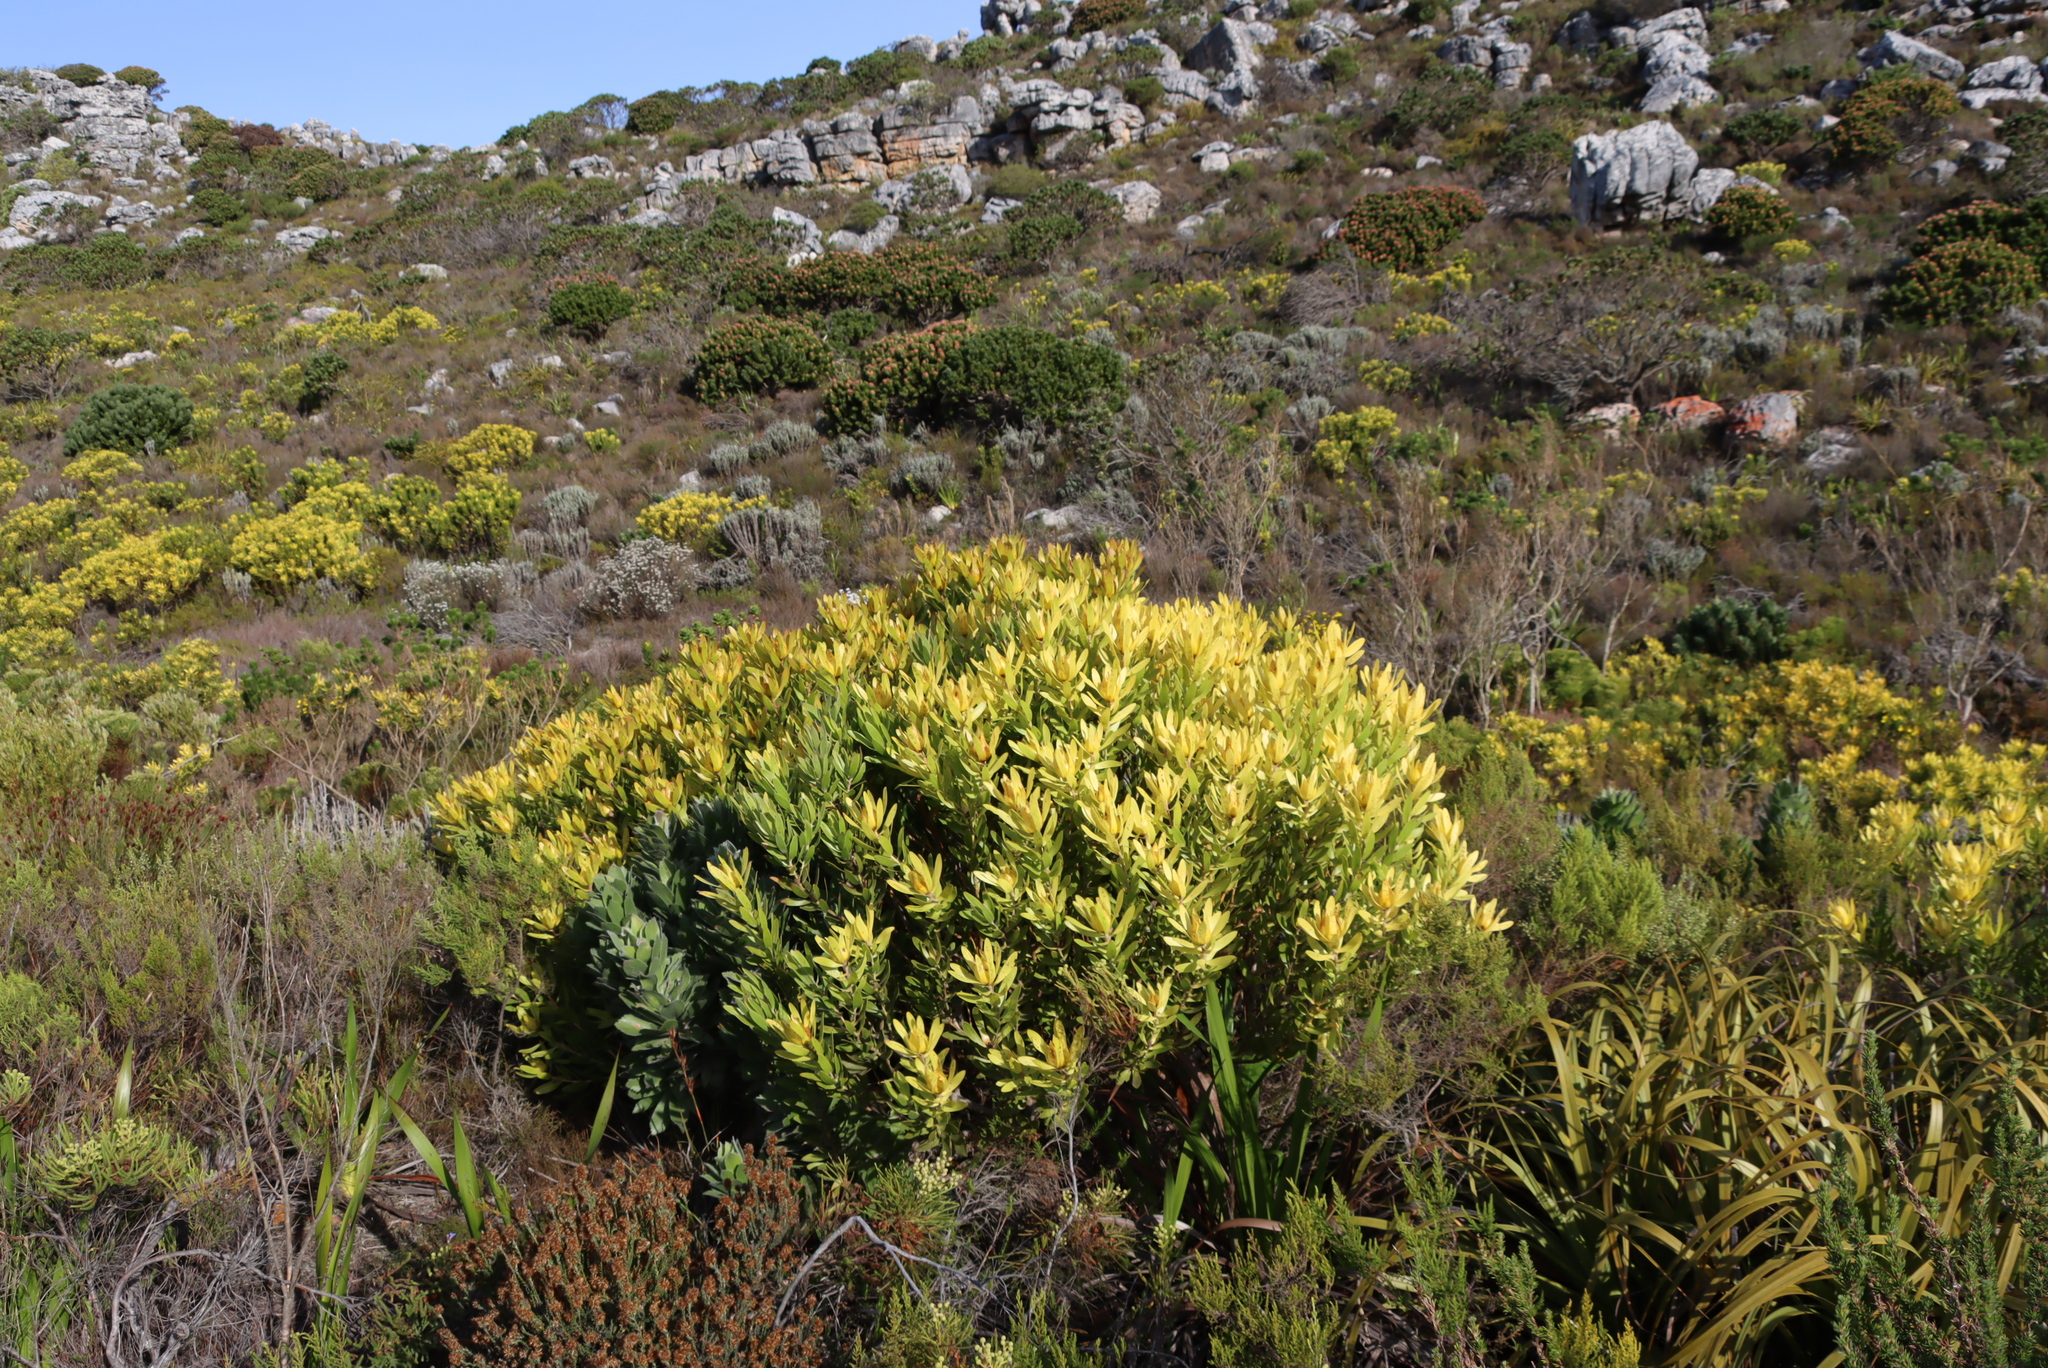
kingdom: Plantae
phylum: Tracheophyta
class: Magnoliopsida
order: Proteales
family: Proteaceae
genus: Leucadendron
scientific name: Leucadendron laureolum
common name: Golden sunshinebush
